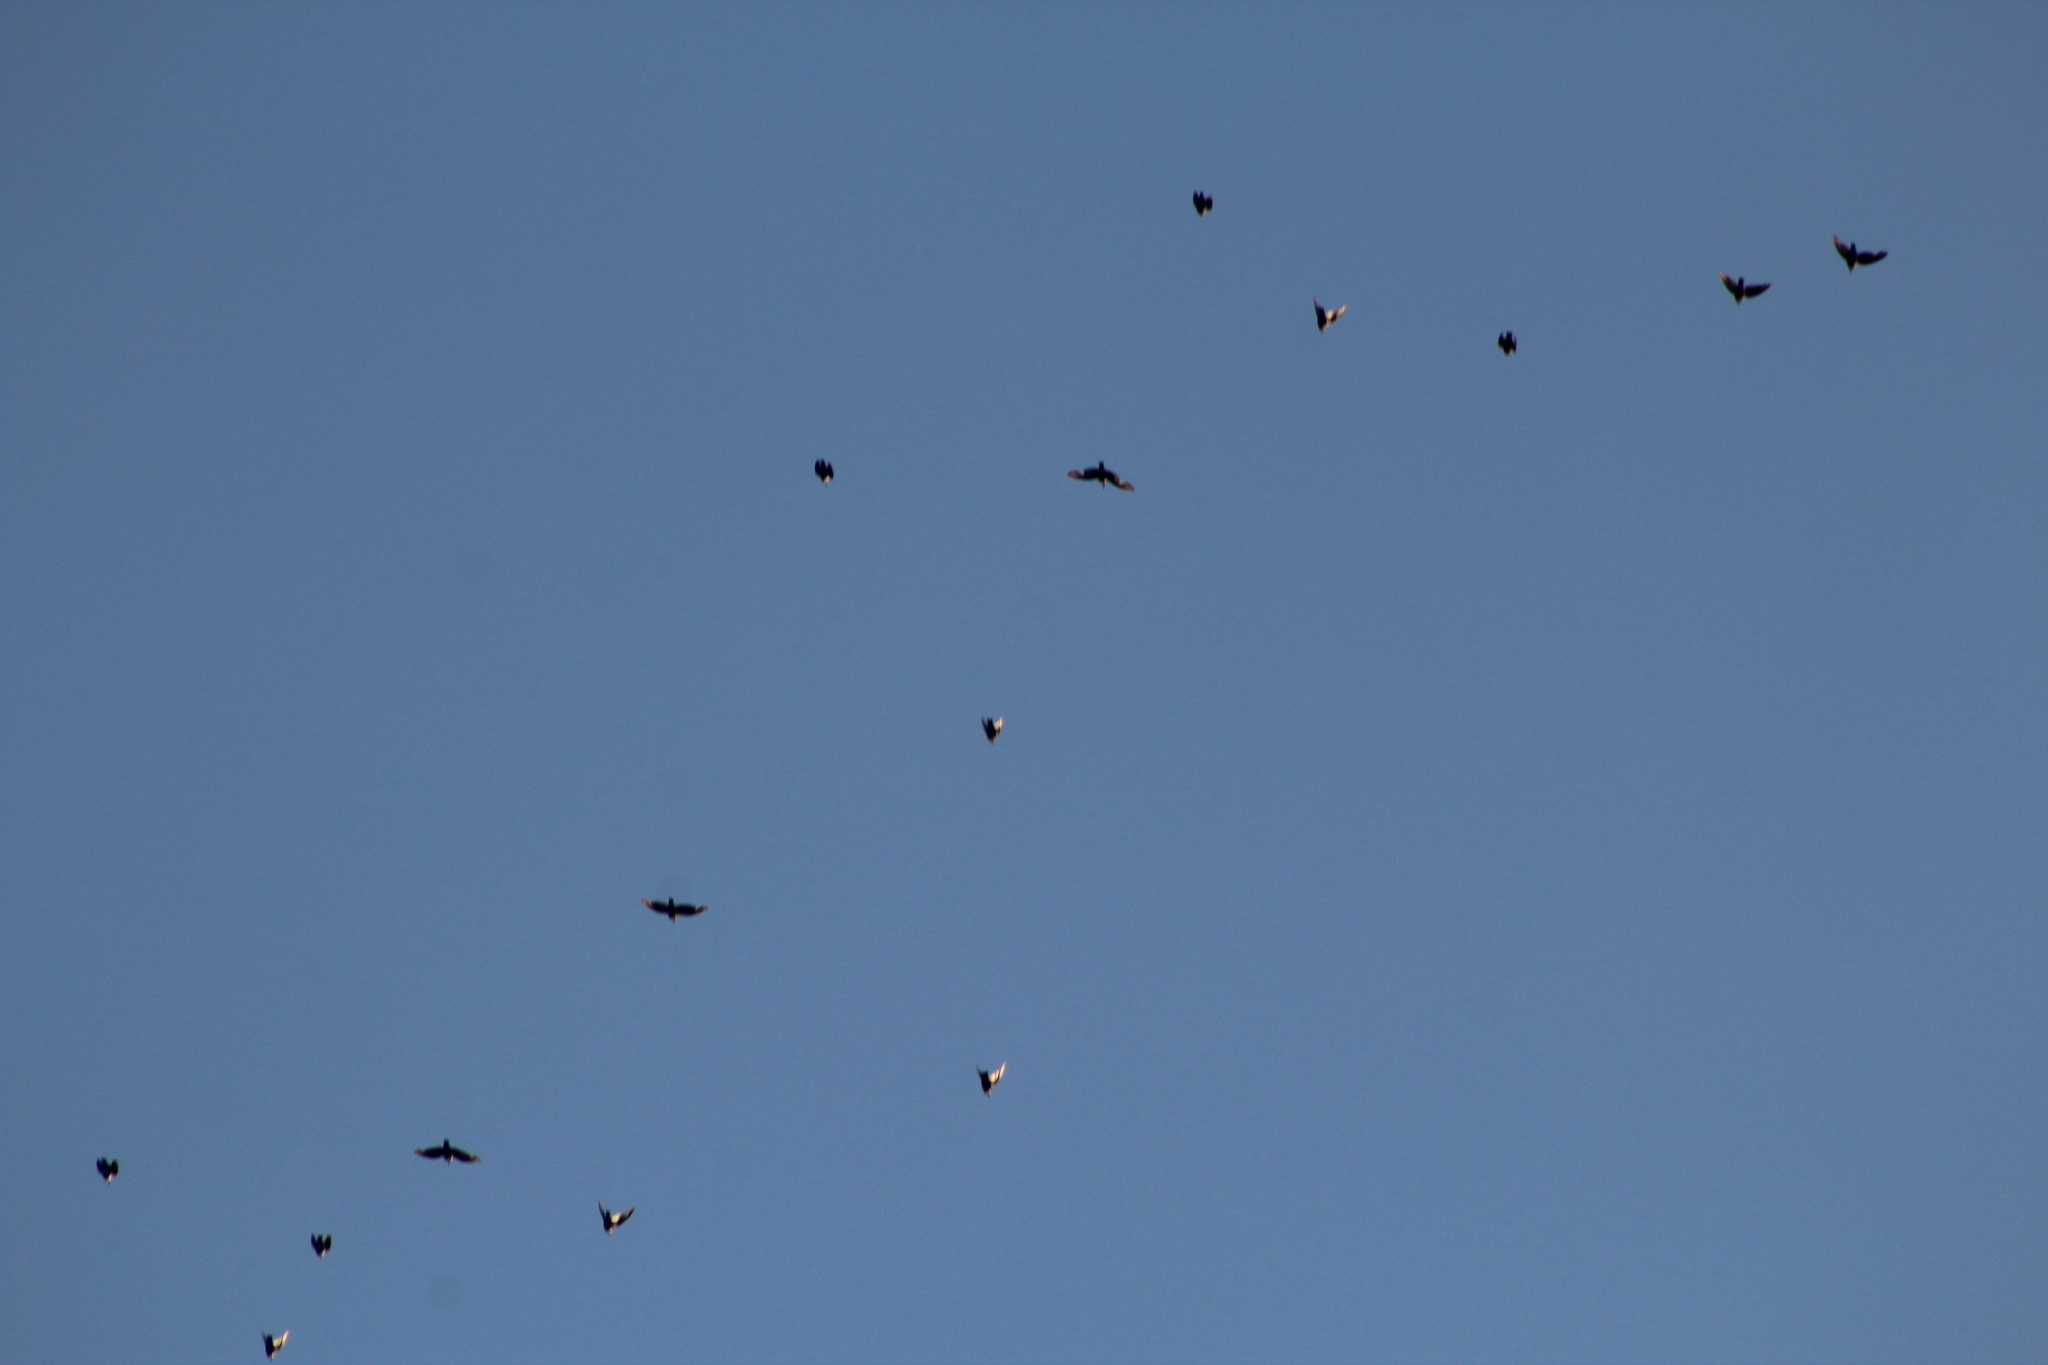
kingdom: Animalia
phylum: Chordata
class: Aves
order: Passeriformes
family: Sturnidae
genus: Sturnus
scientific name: Sturnus vulgaris
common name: Common starling
